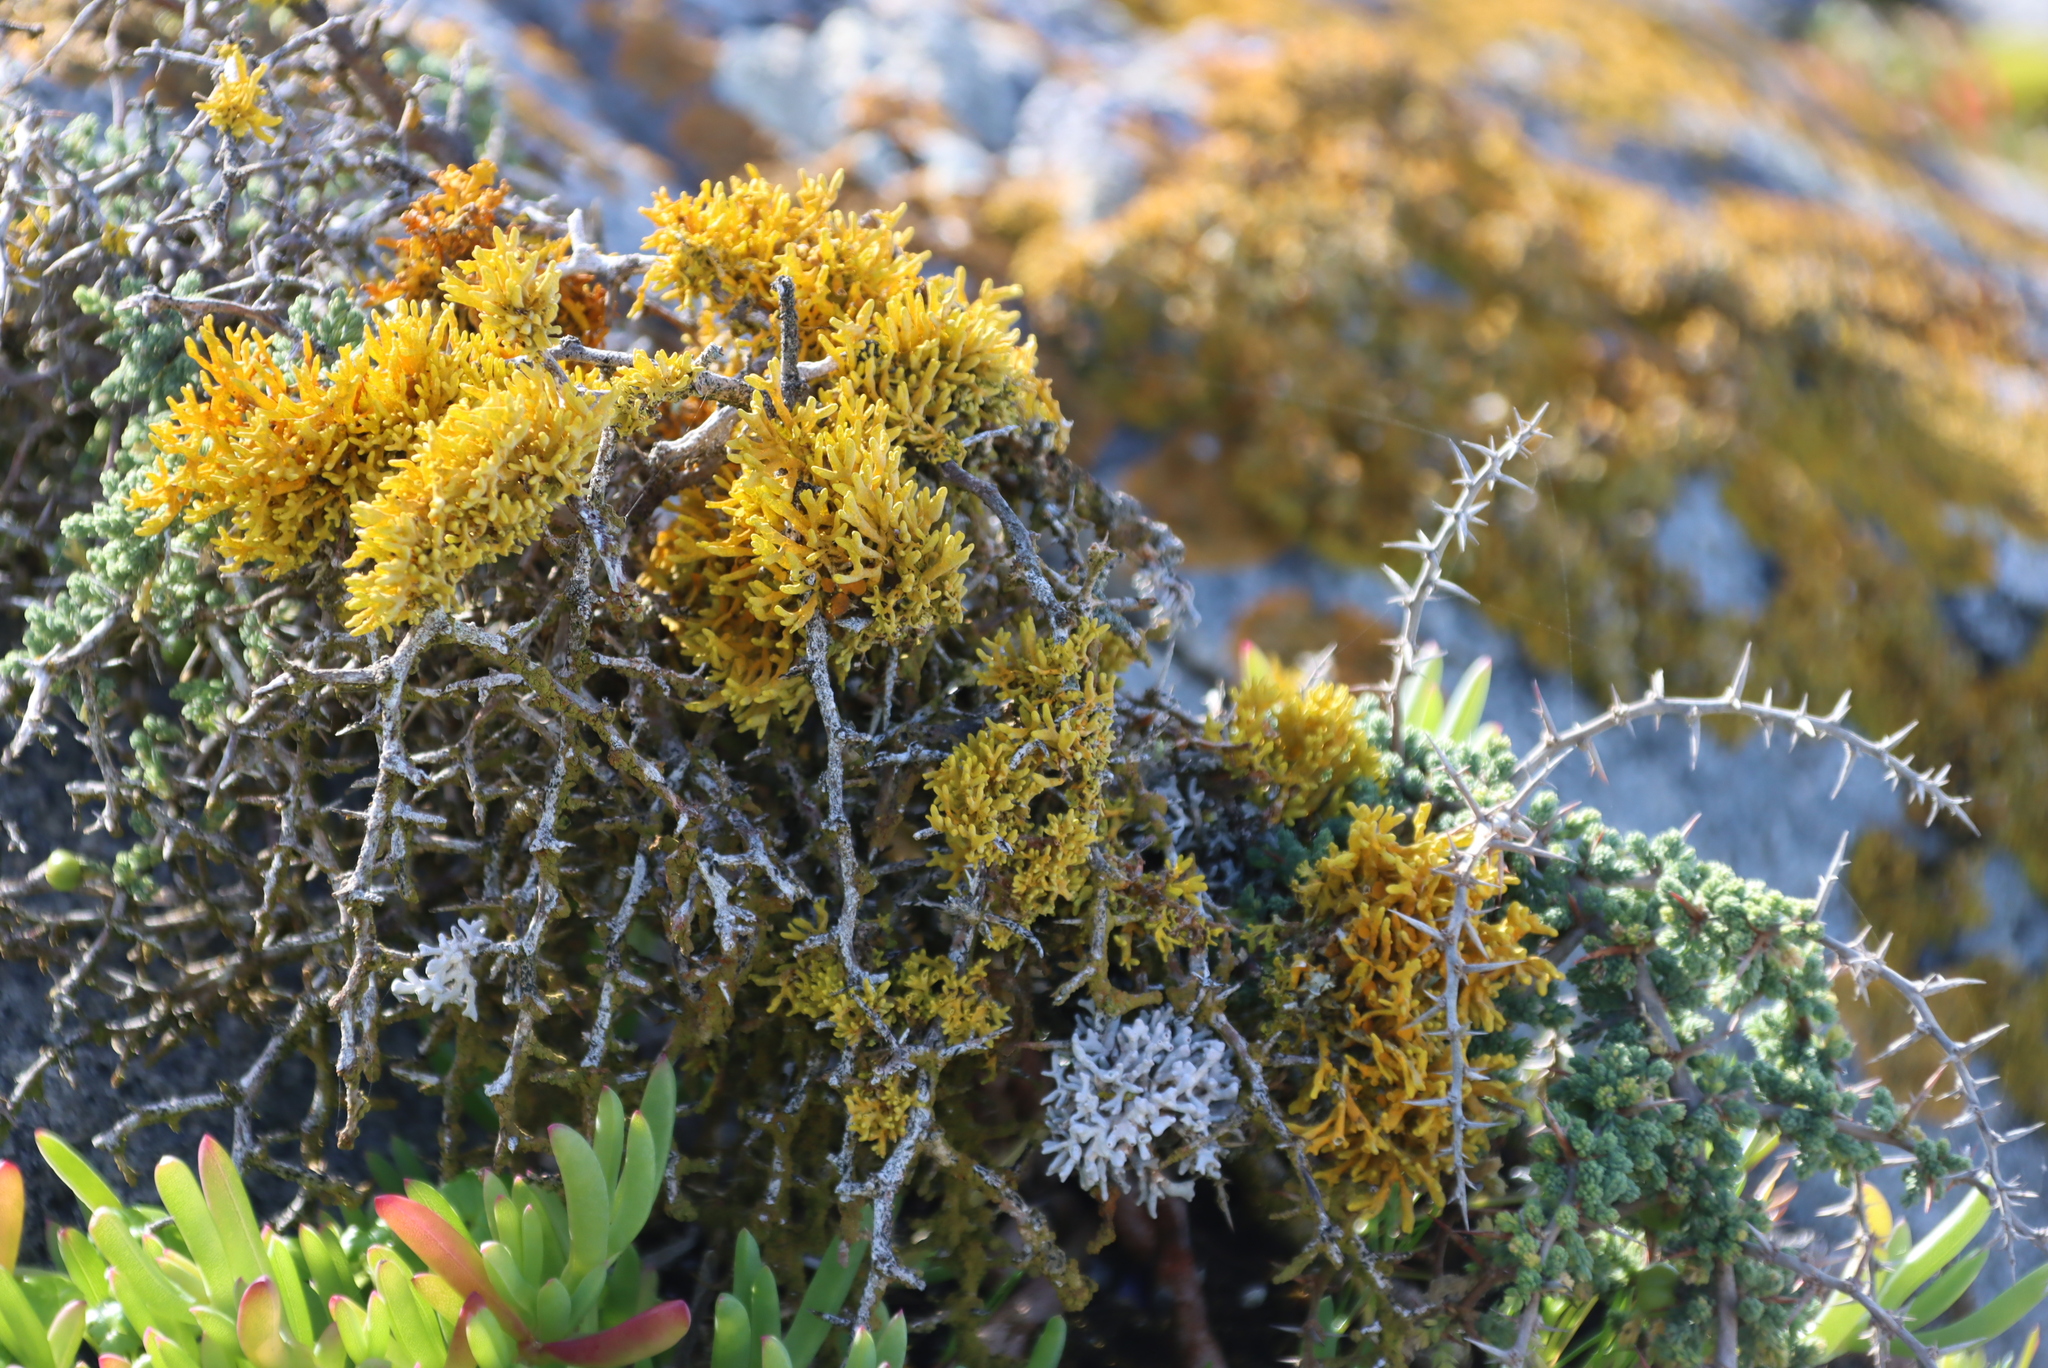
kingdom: Fungi
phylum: Ascomycota
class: Lecanoromycetes
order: Teloschistales
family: Teloschistaceae
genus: Dufourea
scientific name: Dufourea flammea
